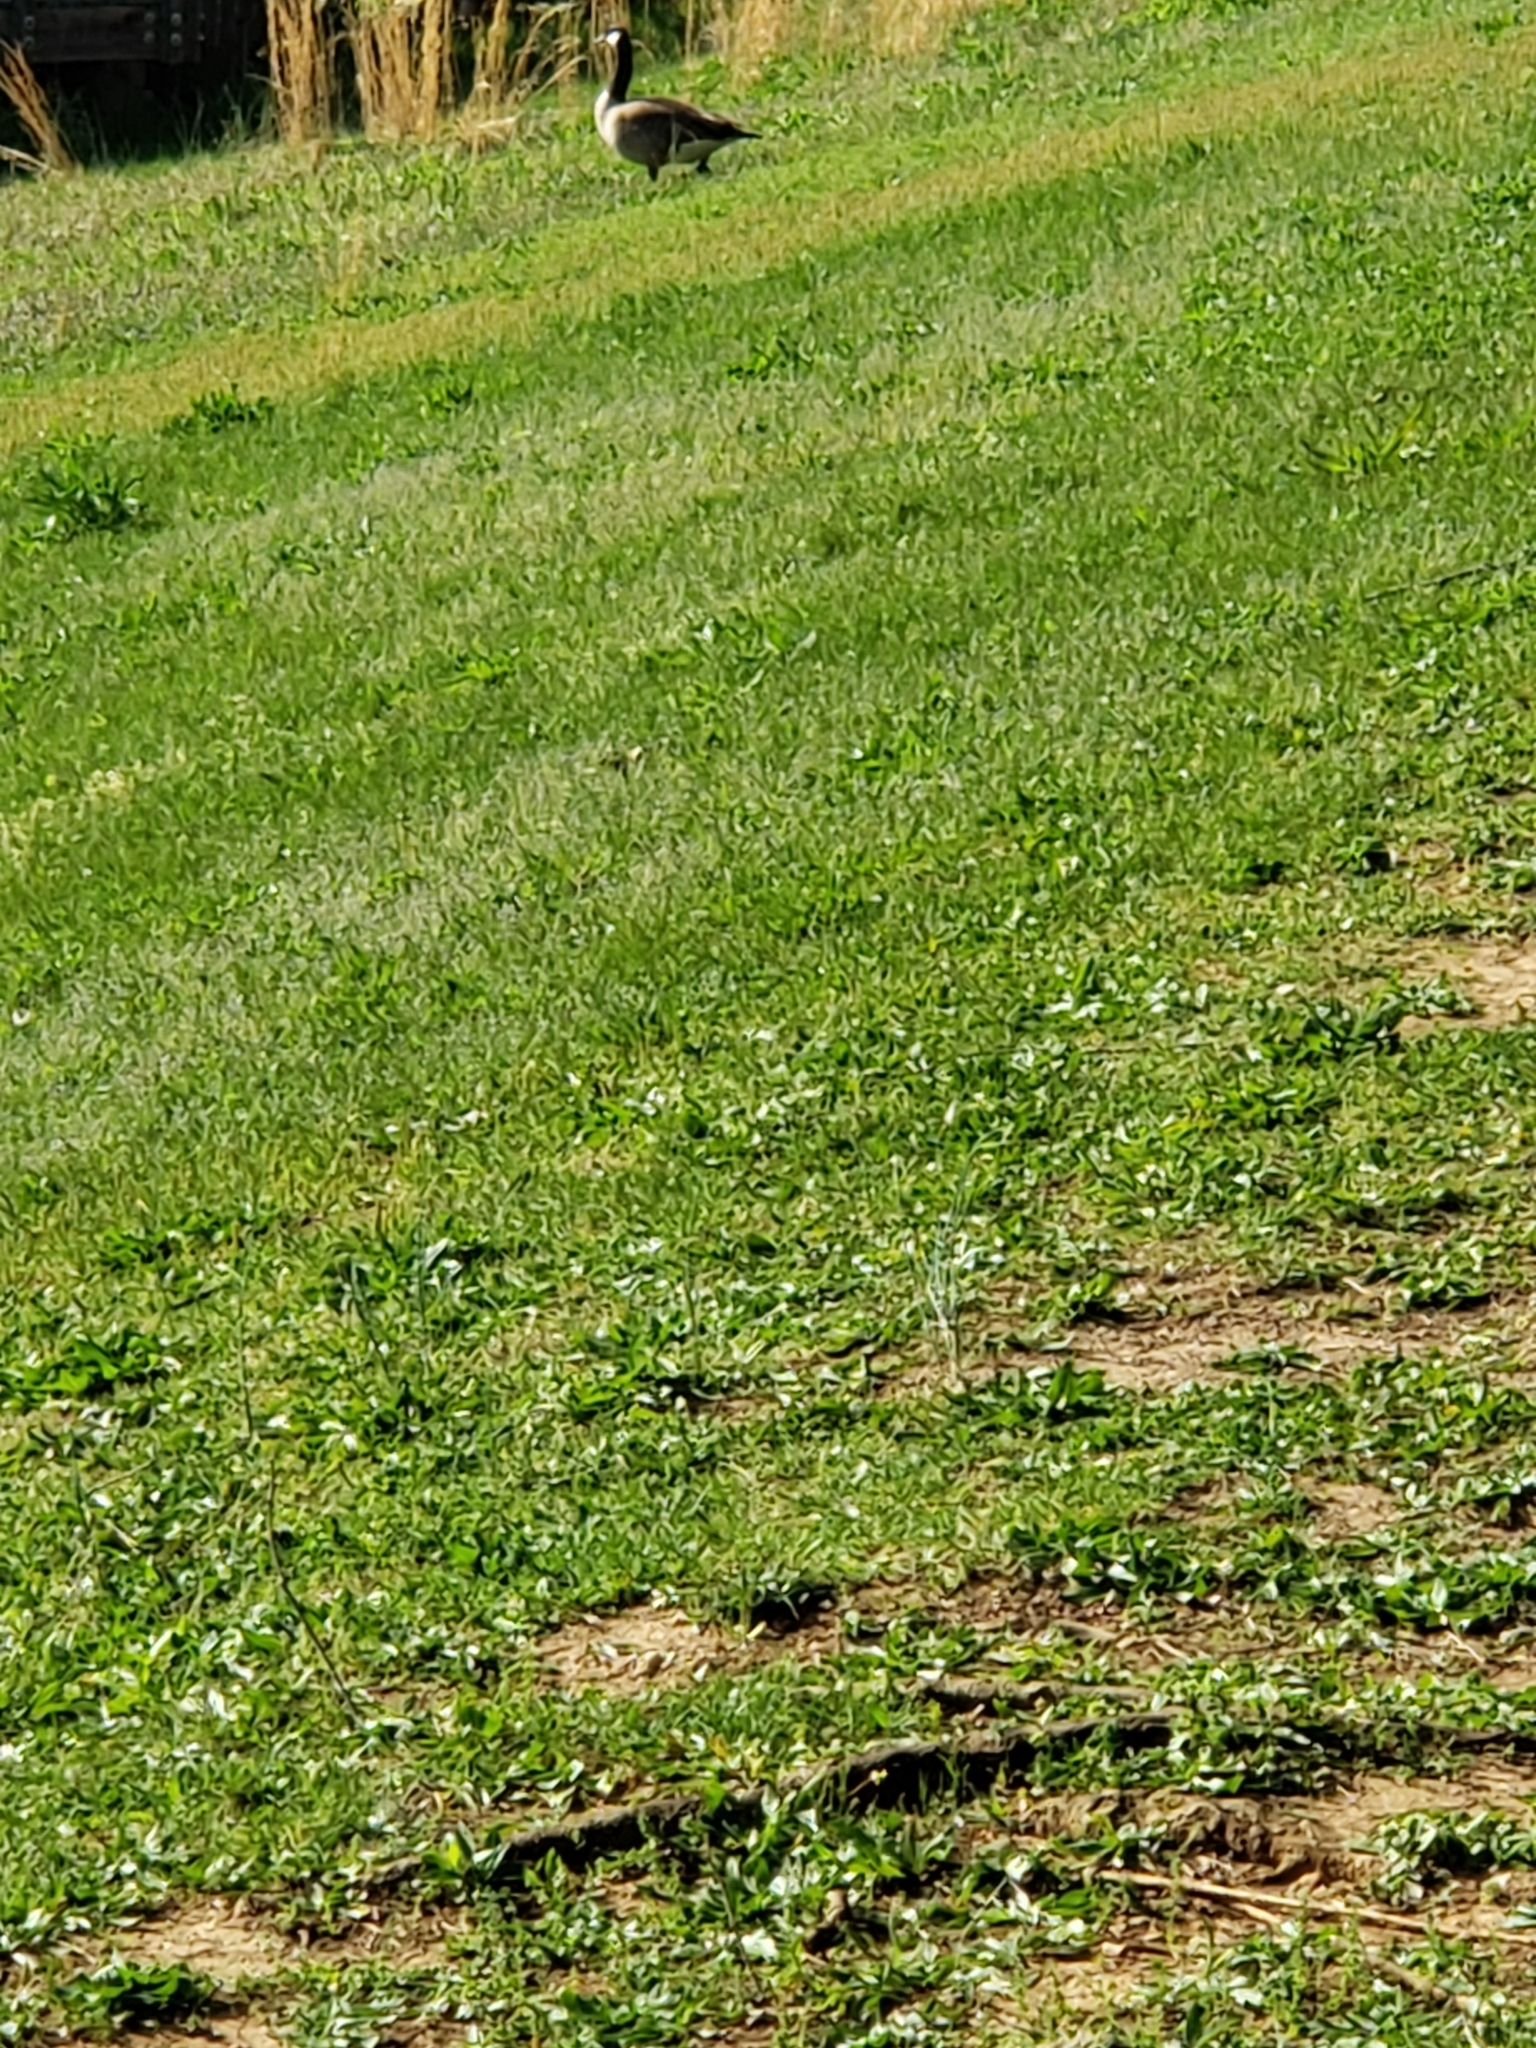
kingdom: Animalia
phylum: Chordata
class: Aves
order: Anseriformes
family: Anatidae
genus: Branta
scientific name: Branta canadensis
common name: Canada goose
